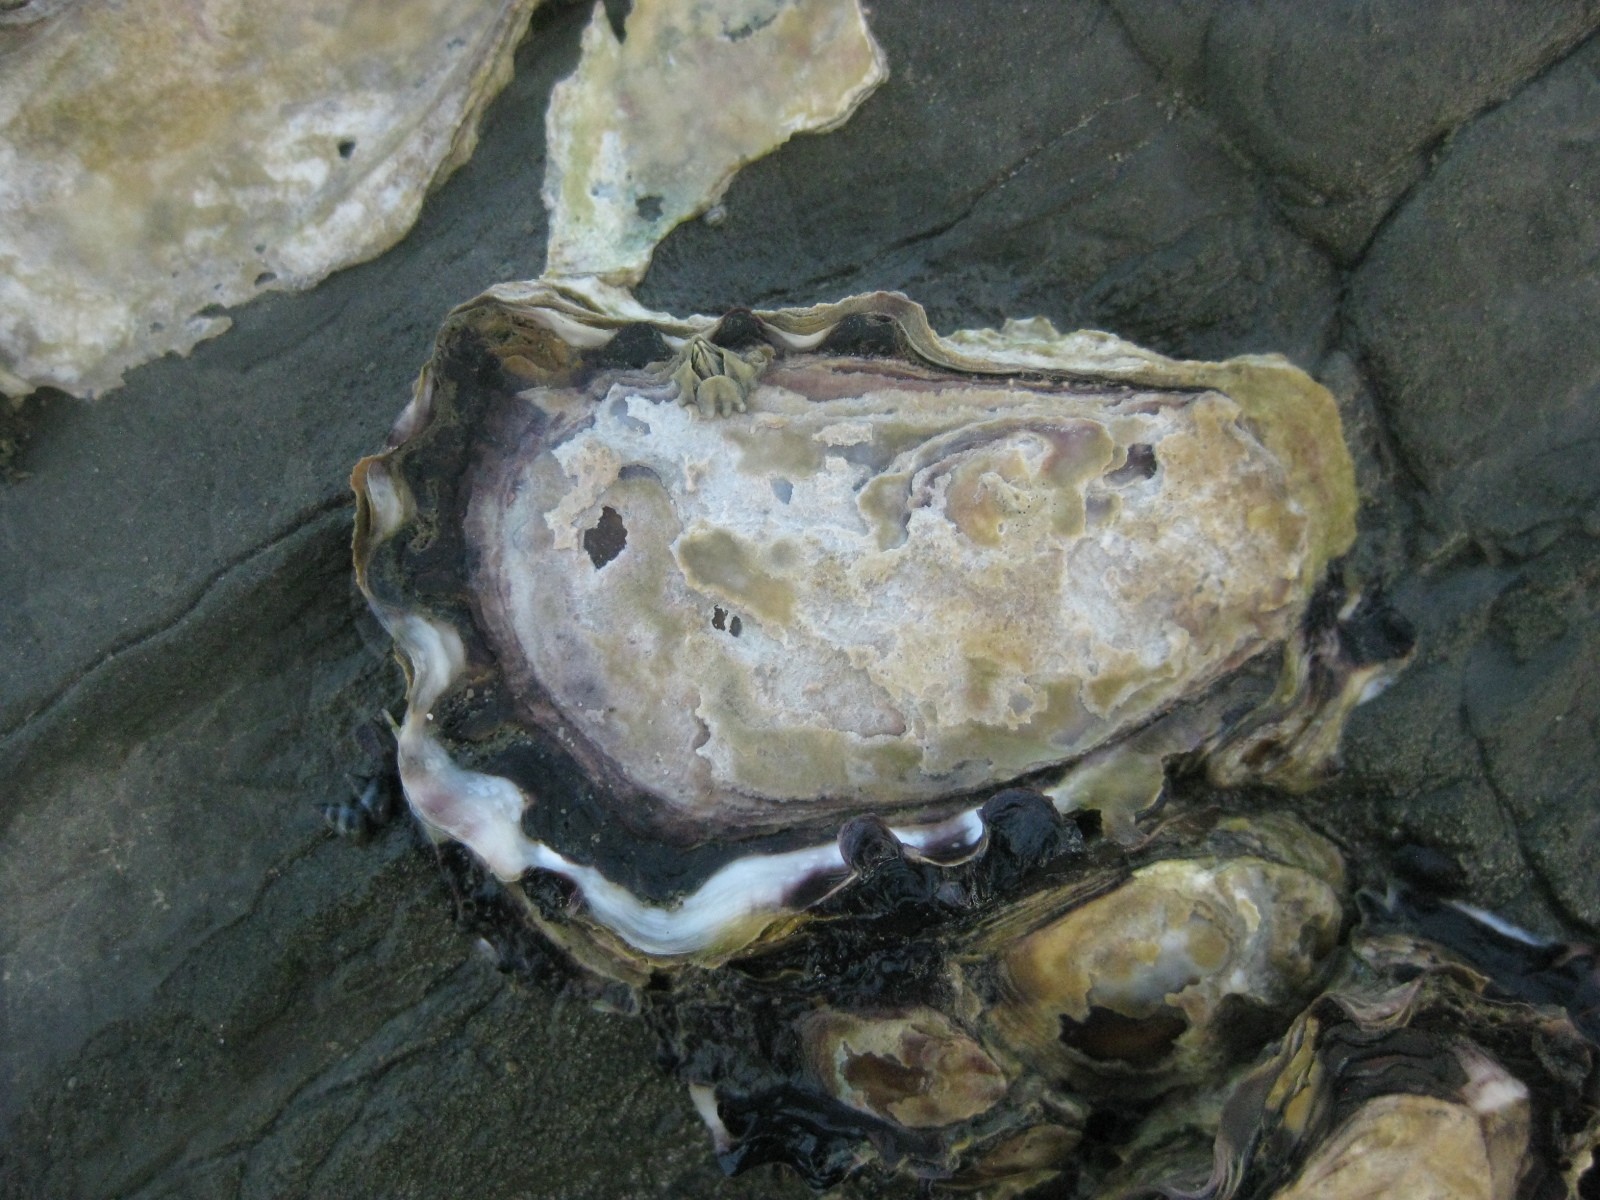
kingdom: Animalia
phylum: Mollusca
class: Bivalvia
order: Ostreida
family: Ostreidae
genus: Saccostrea
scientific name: Saccostrea glomerata
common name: Sydney cupped oyster
